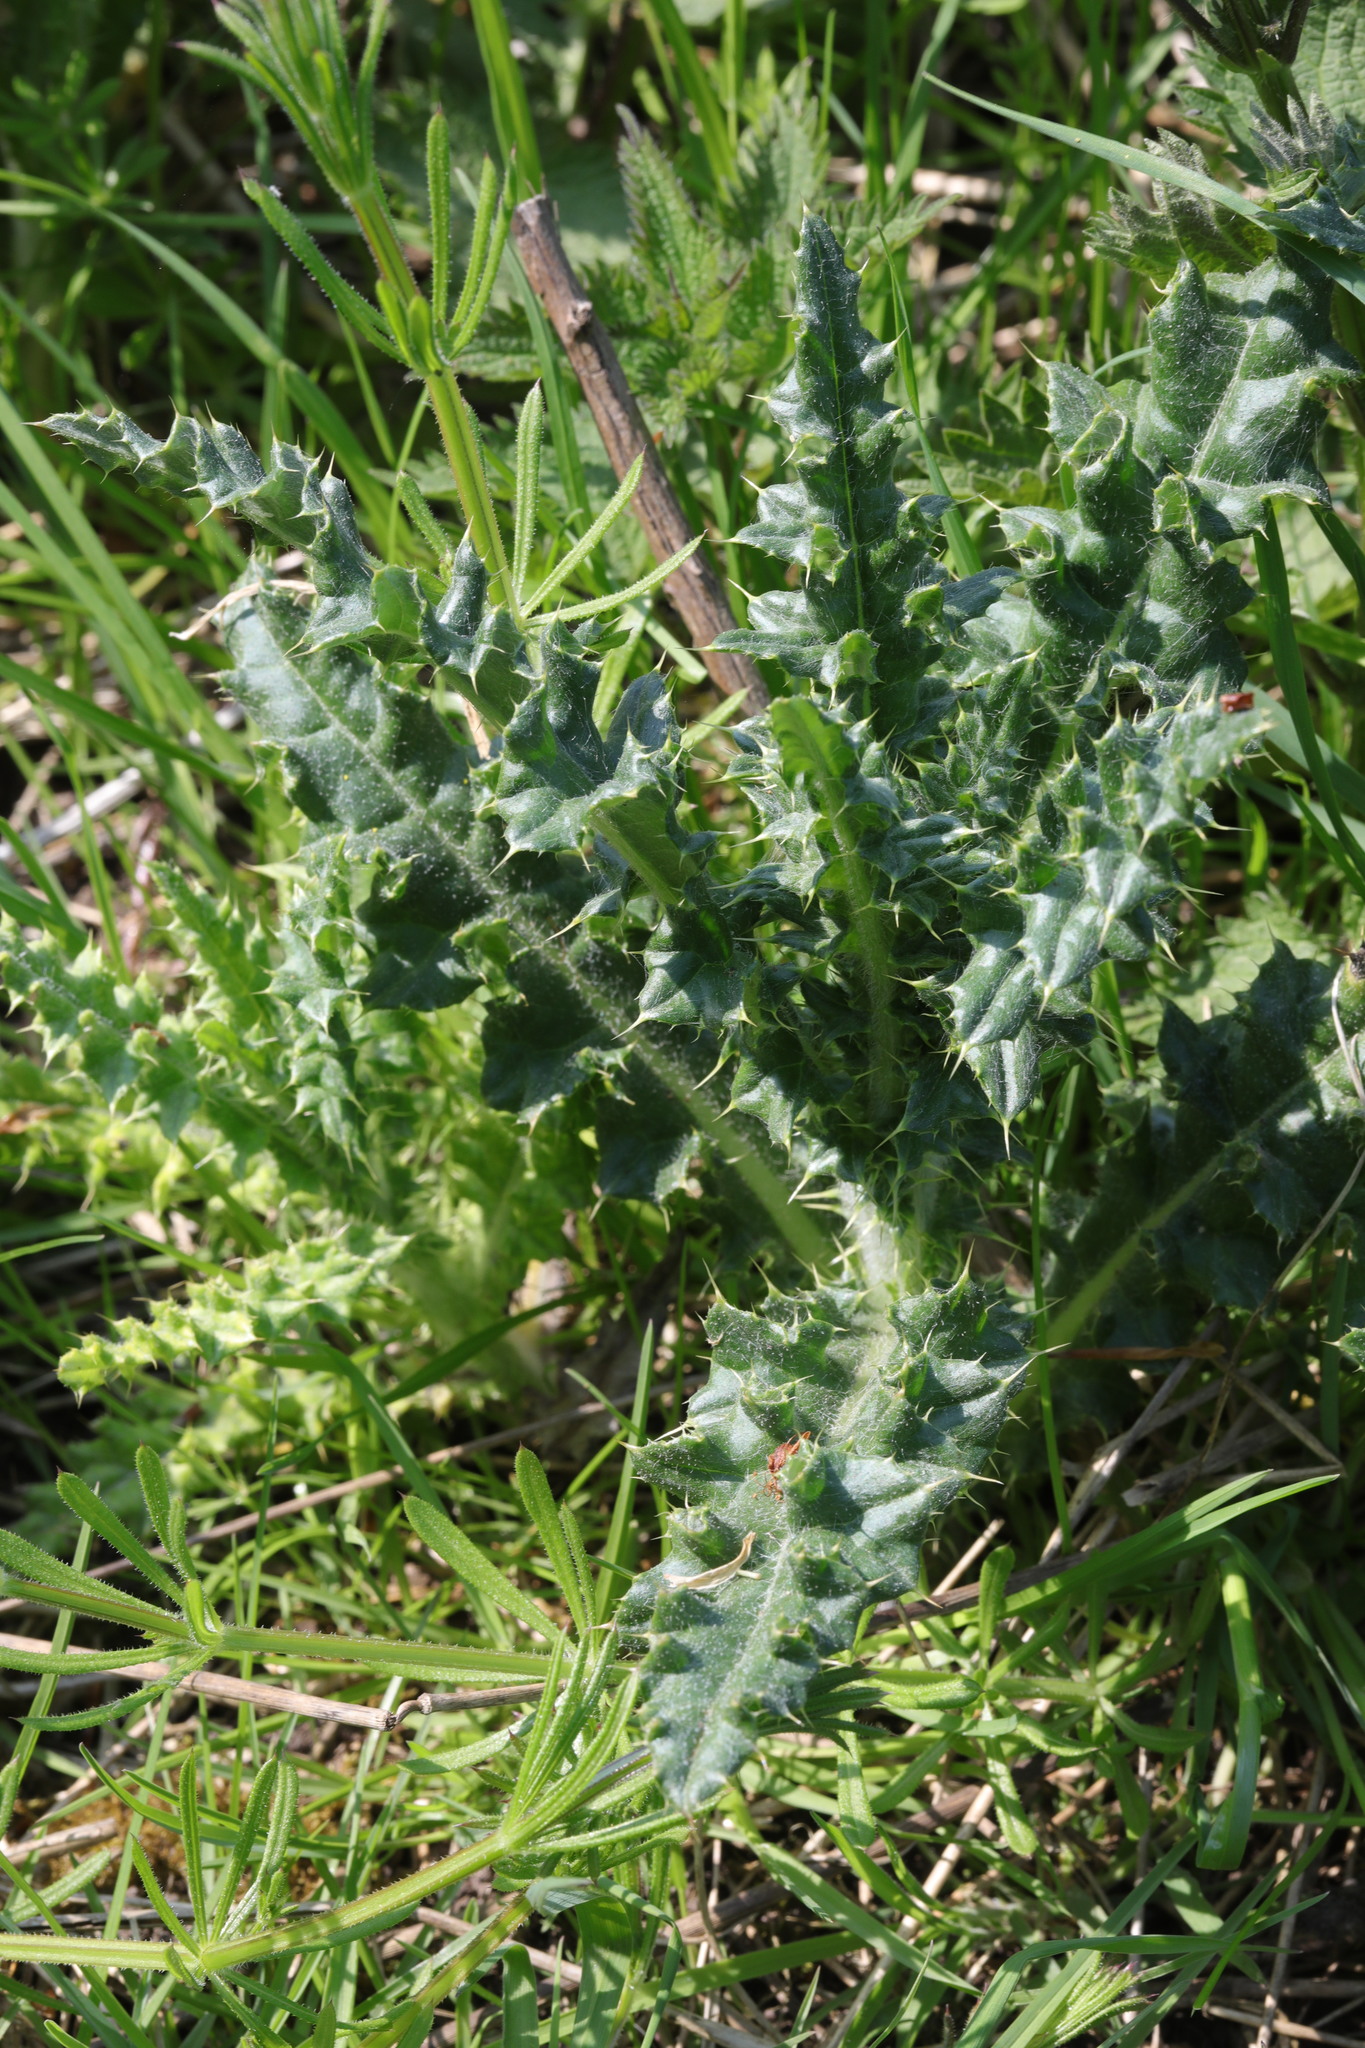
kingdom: Plantae
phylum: Tracheophyta
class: Magnoliopsida
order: Asterales
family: Asteraceae
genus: Cirsium
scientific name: Cirsium arvense
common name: Creeping thistle
